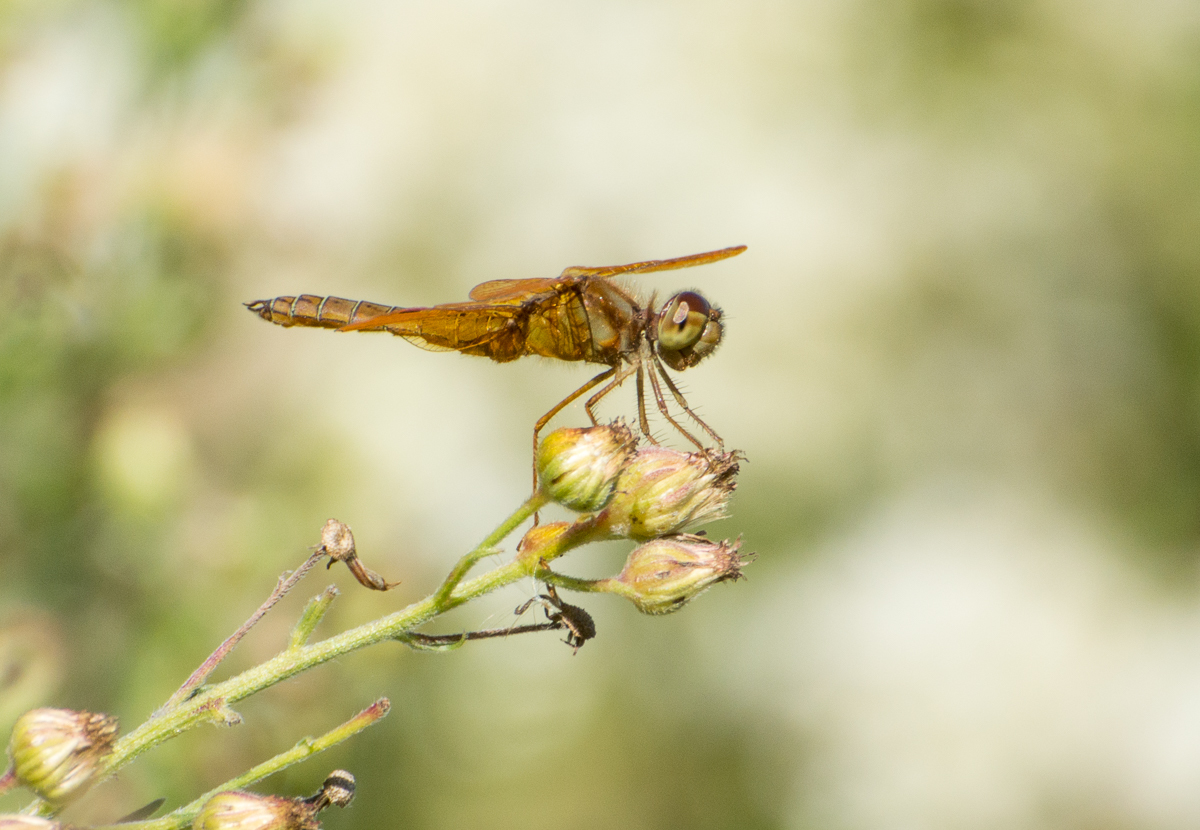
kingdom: Animalia
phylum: Arthropoda
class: Insecta
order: Odonata
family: Libellulidae
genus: Perithemis
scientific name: Perithemis tenera
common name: Eastern amberwing
